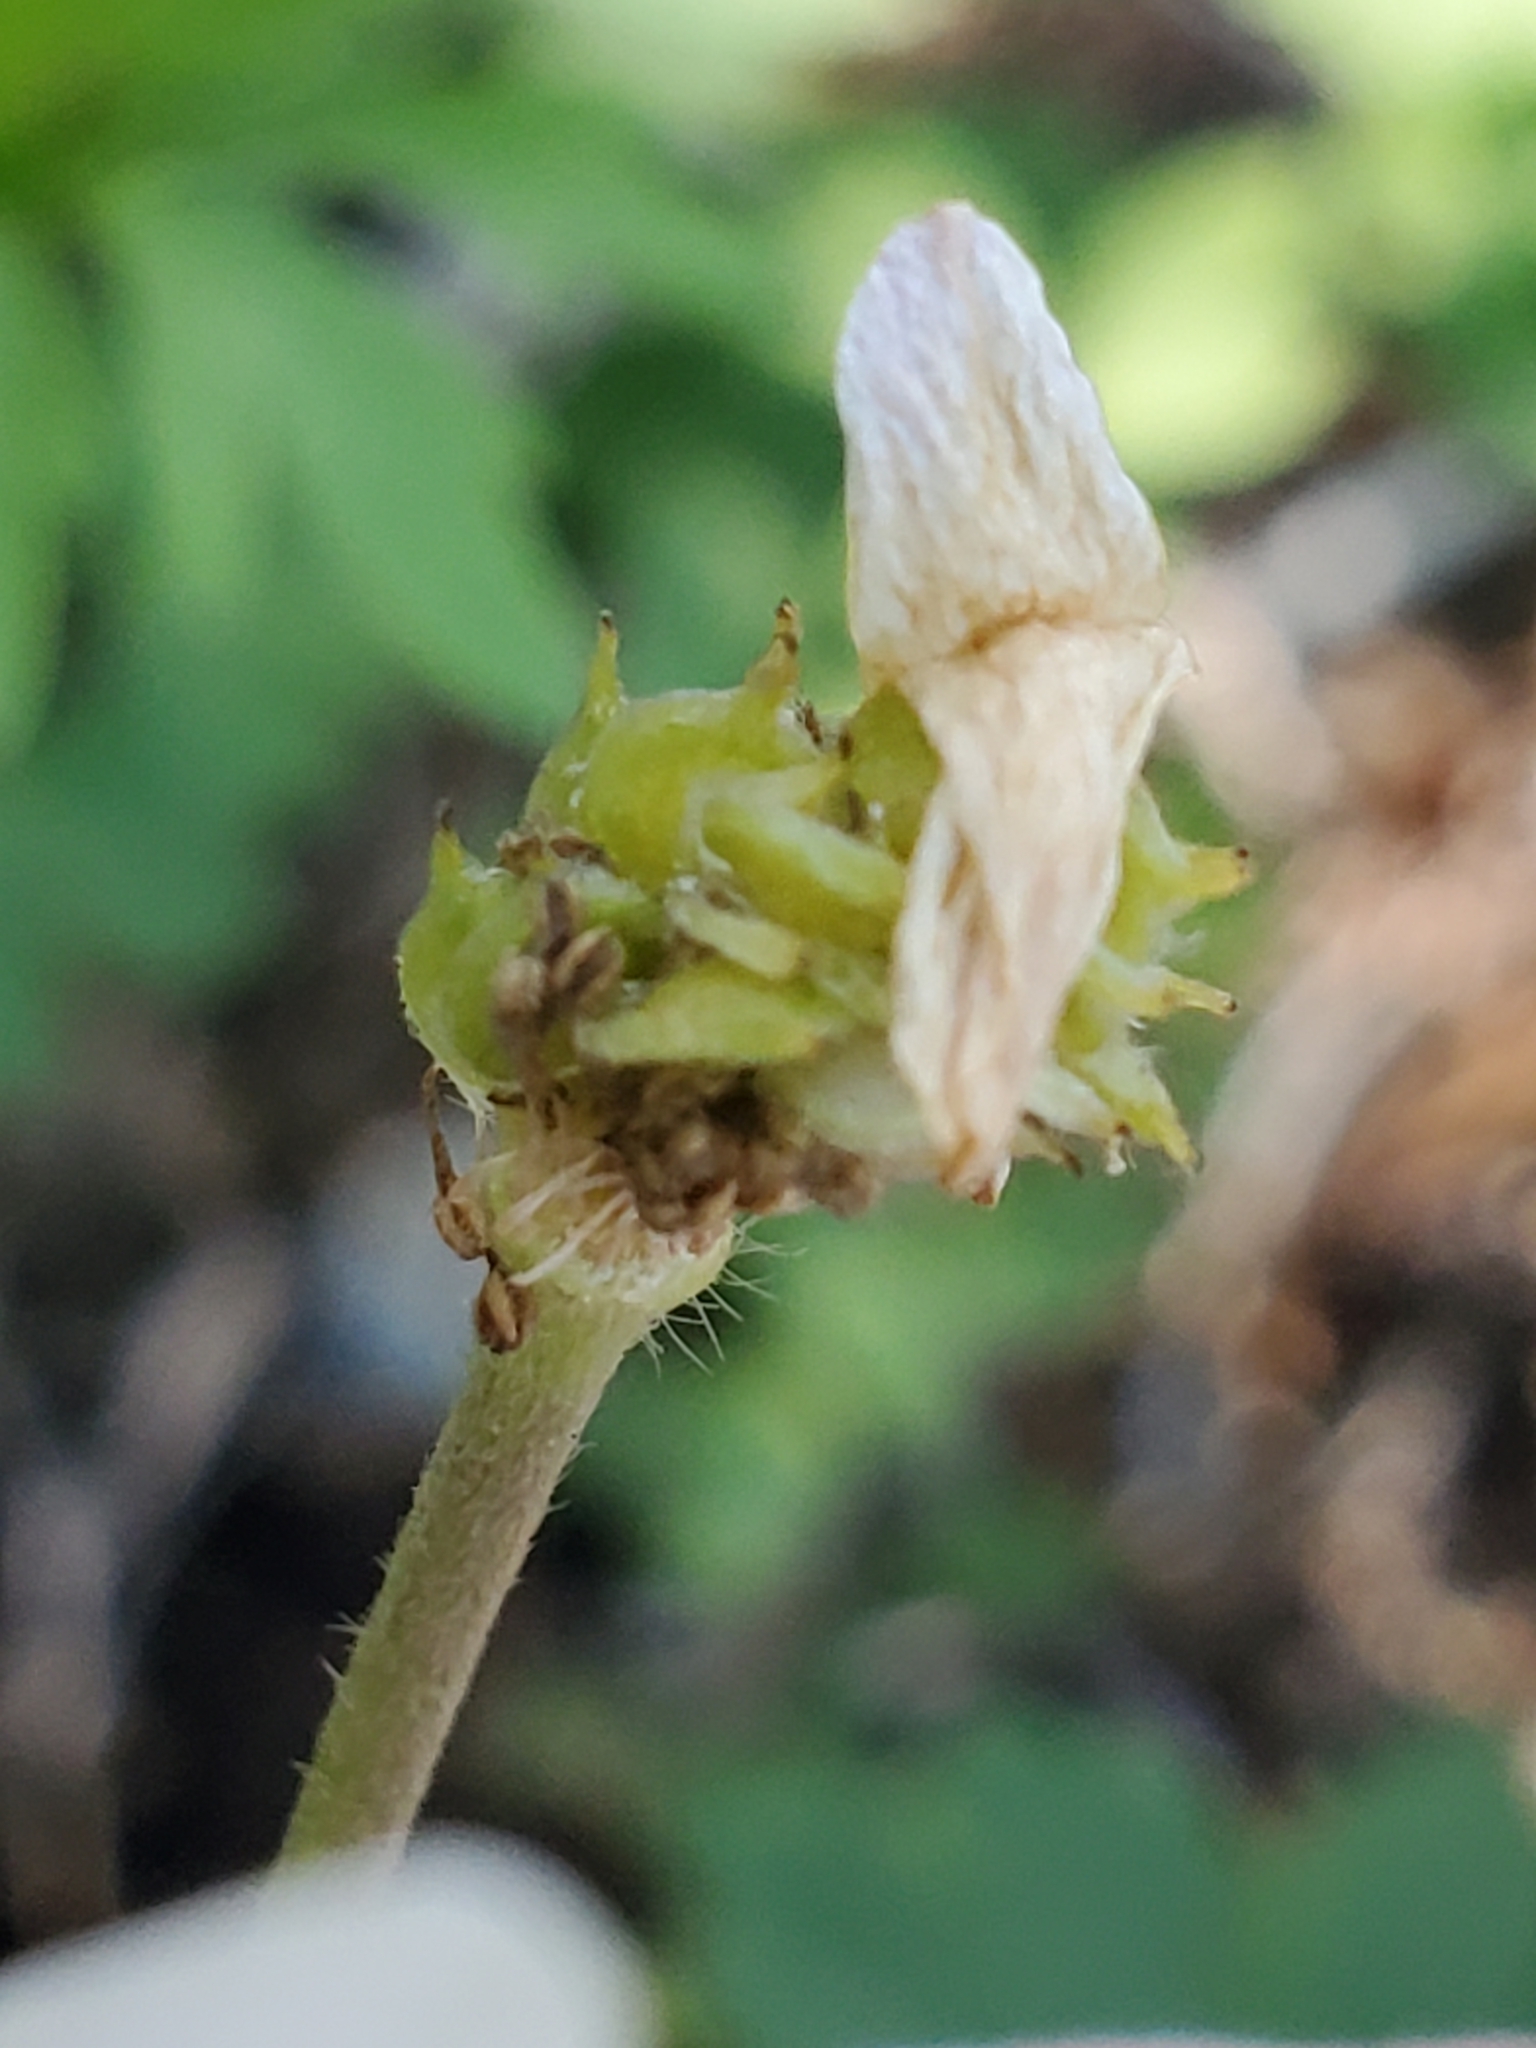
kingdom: Plantae
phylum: Tracheophyta
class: Magnoliopsida
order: Ranunculales
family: Ranunculaceae
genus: Anemone
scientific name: Anemone edwardsiana
